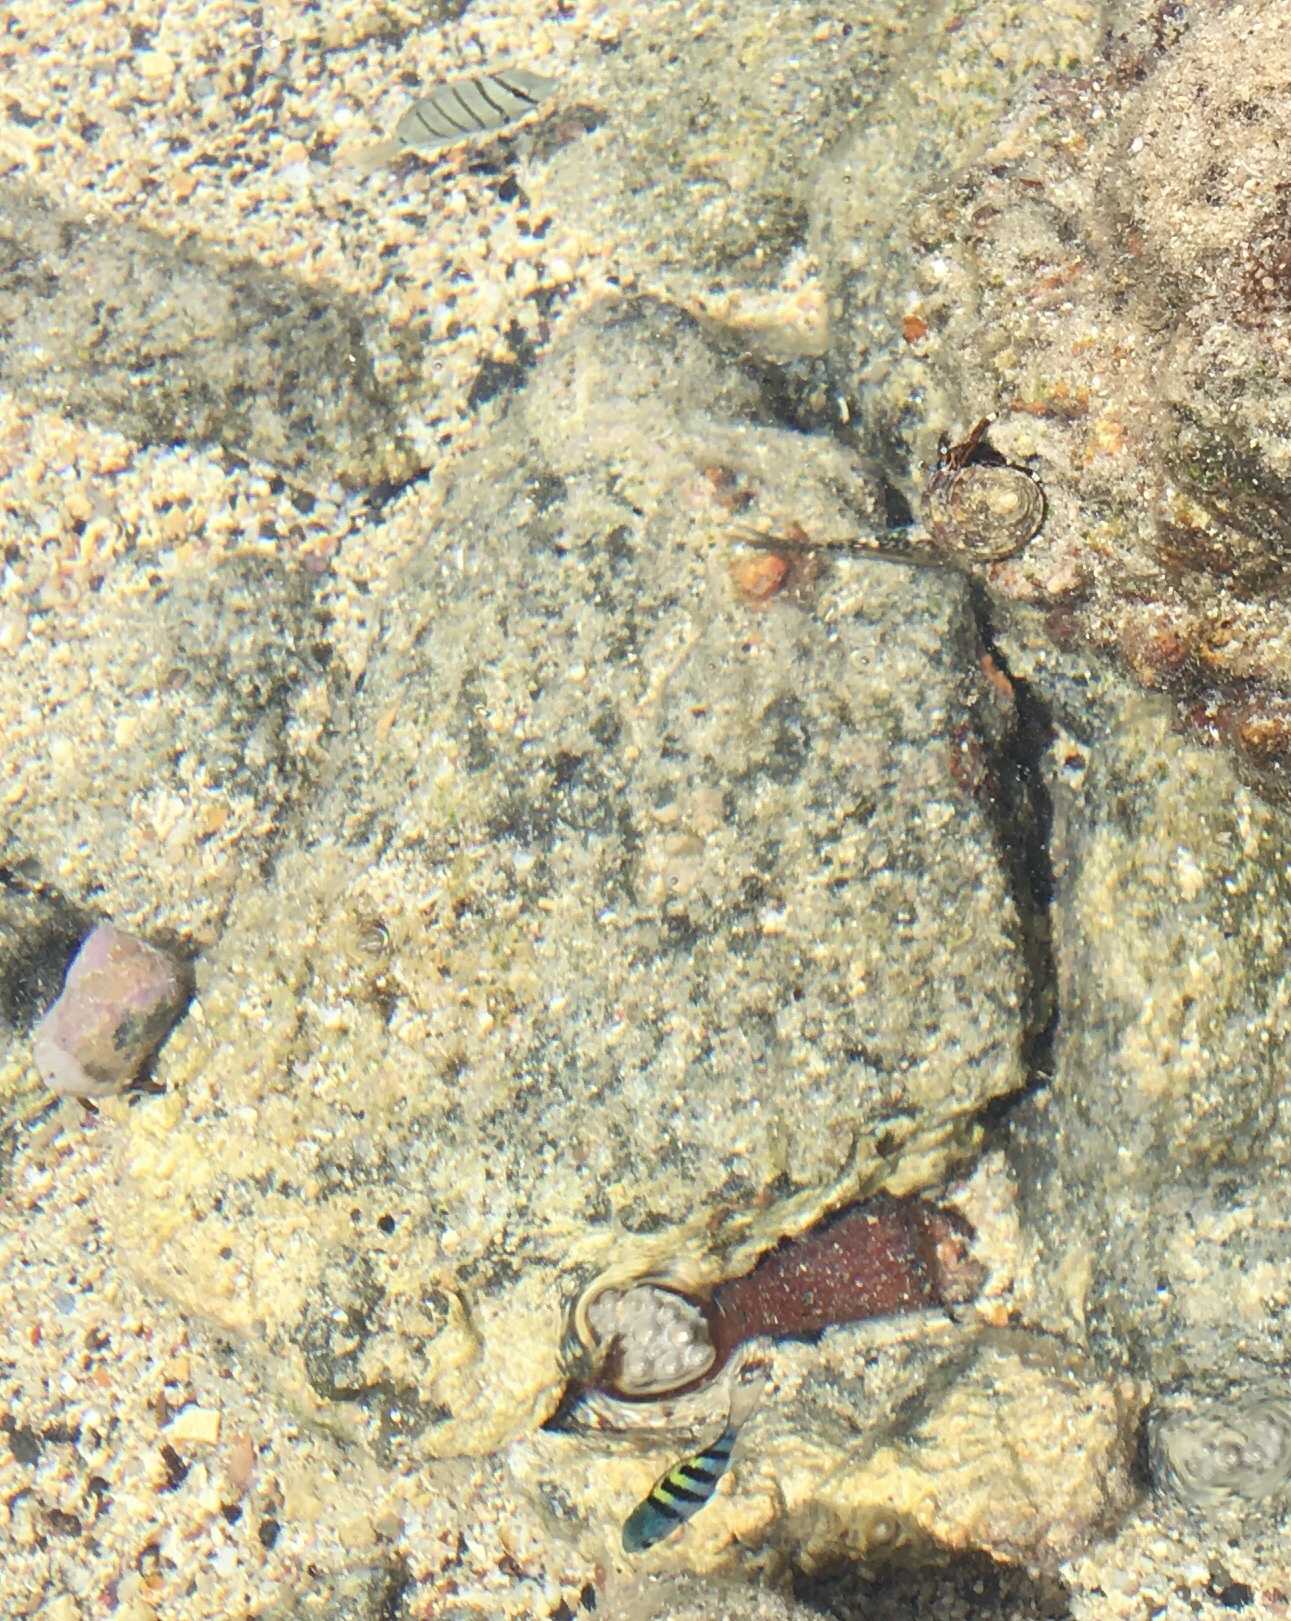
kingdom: Animalia
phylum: Chordata
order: Perciformes
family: Acanthuridae
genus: Acanthurus
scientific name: Acanthurus triostegus
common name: Convict surgeonfish
